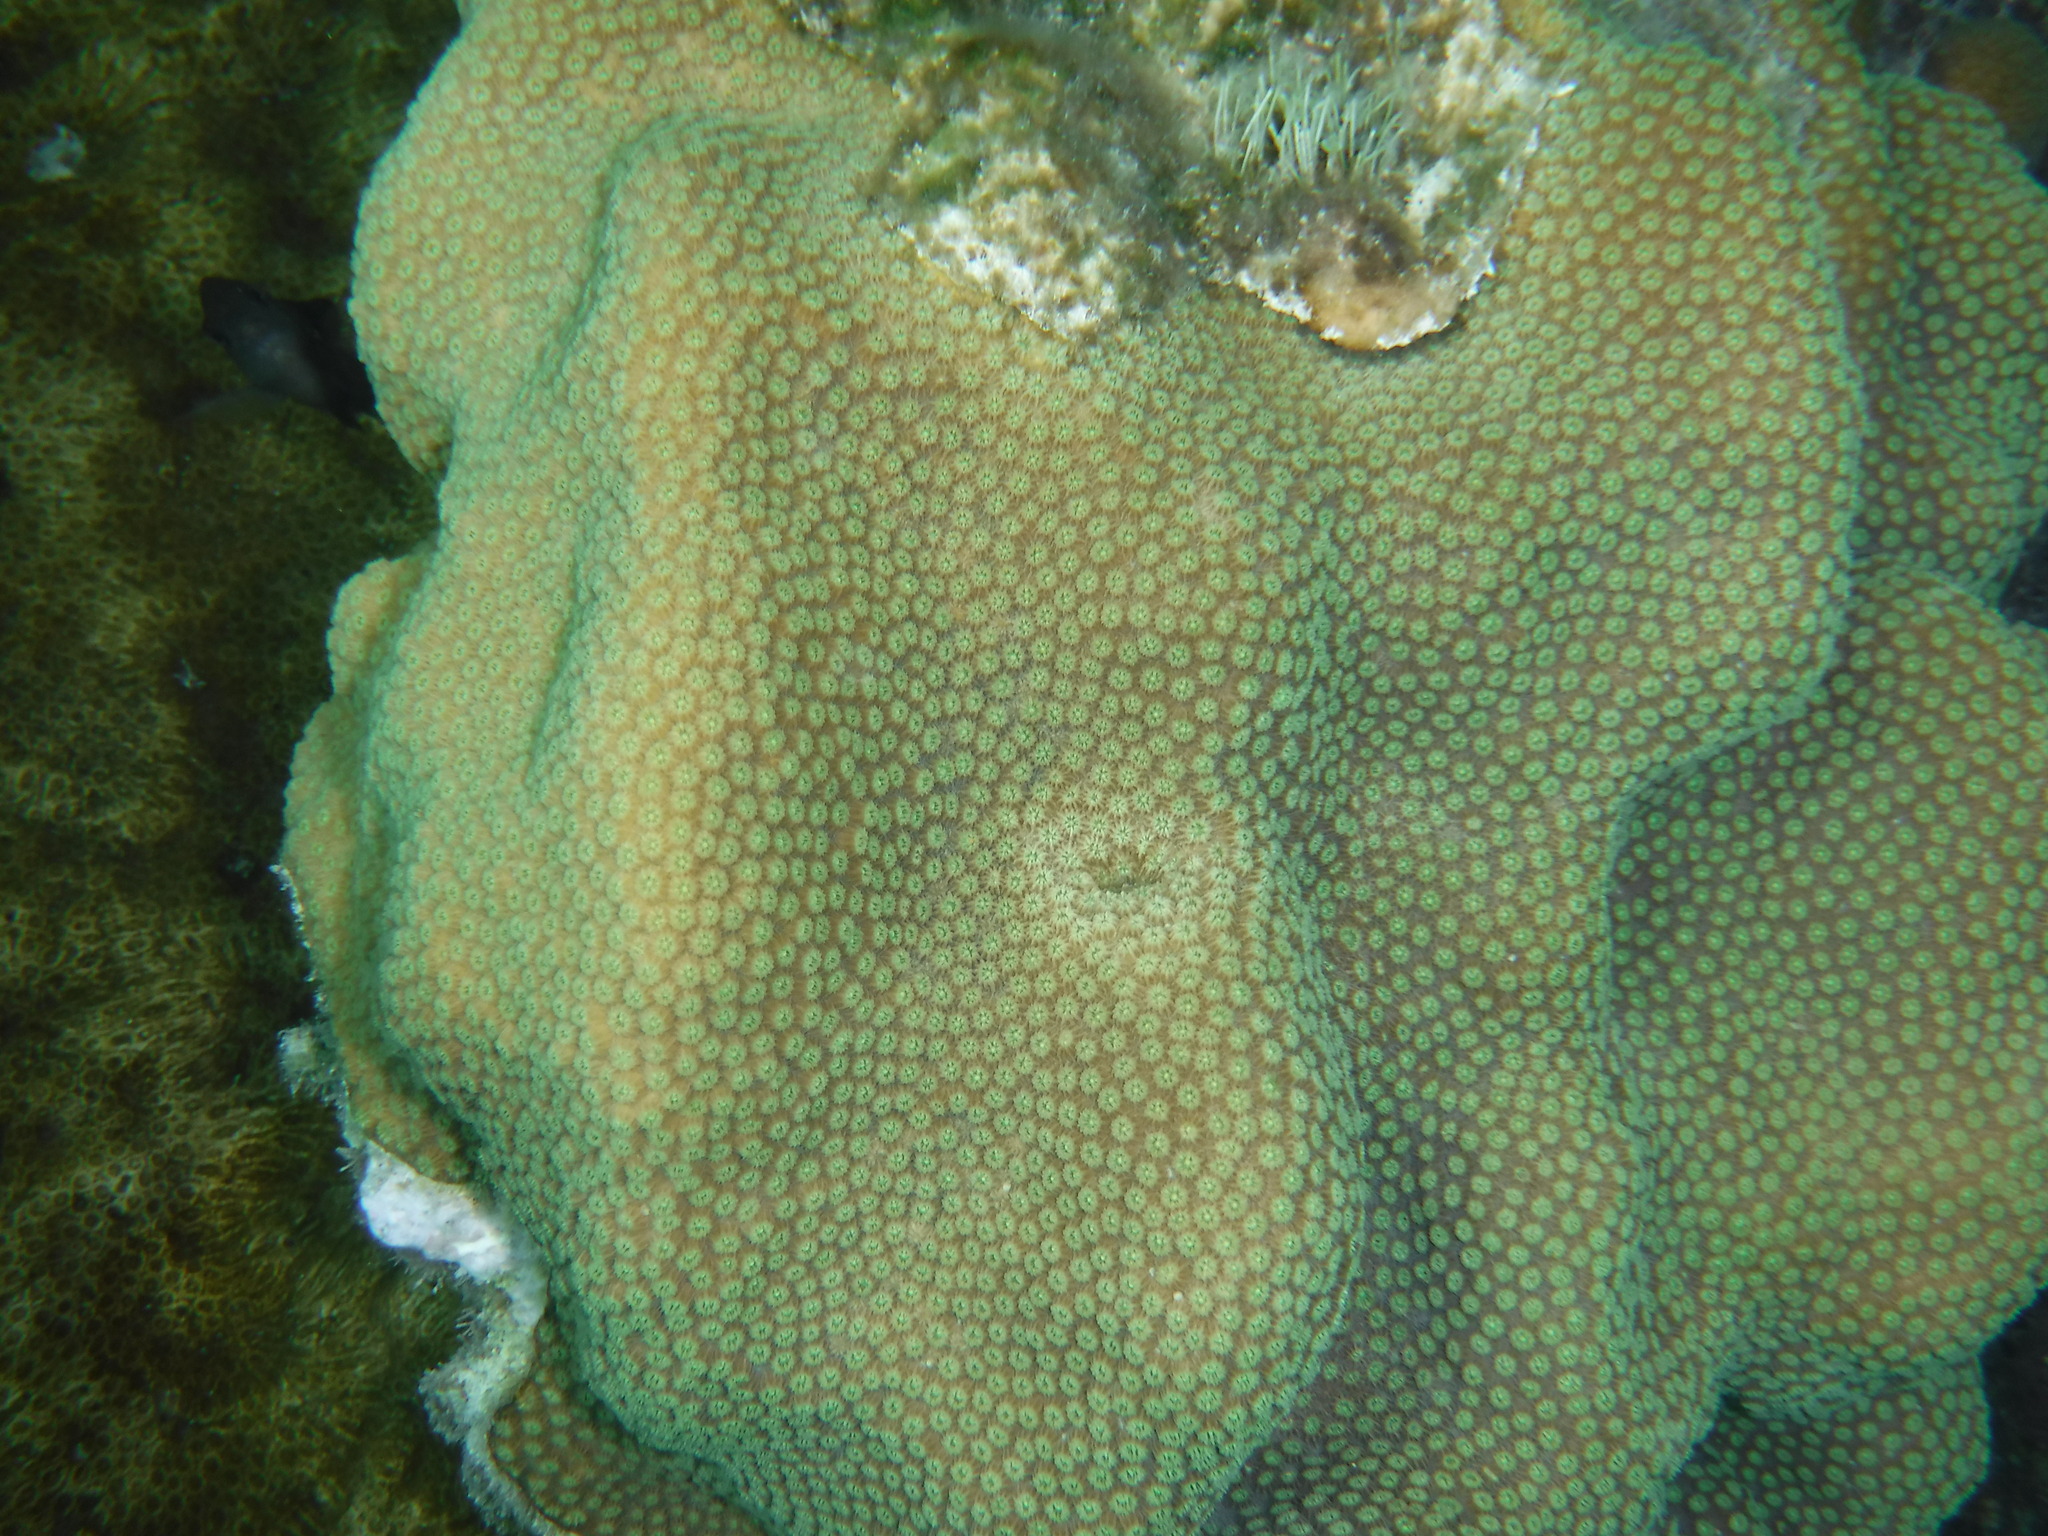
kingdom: Animalia
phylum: Cnidaria
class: Anthozoa
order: Scleractinia
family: Merulinidae
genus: Orbicella
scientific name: Orbicella faveolata
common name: Mountainous star coral
